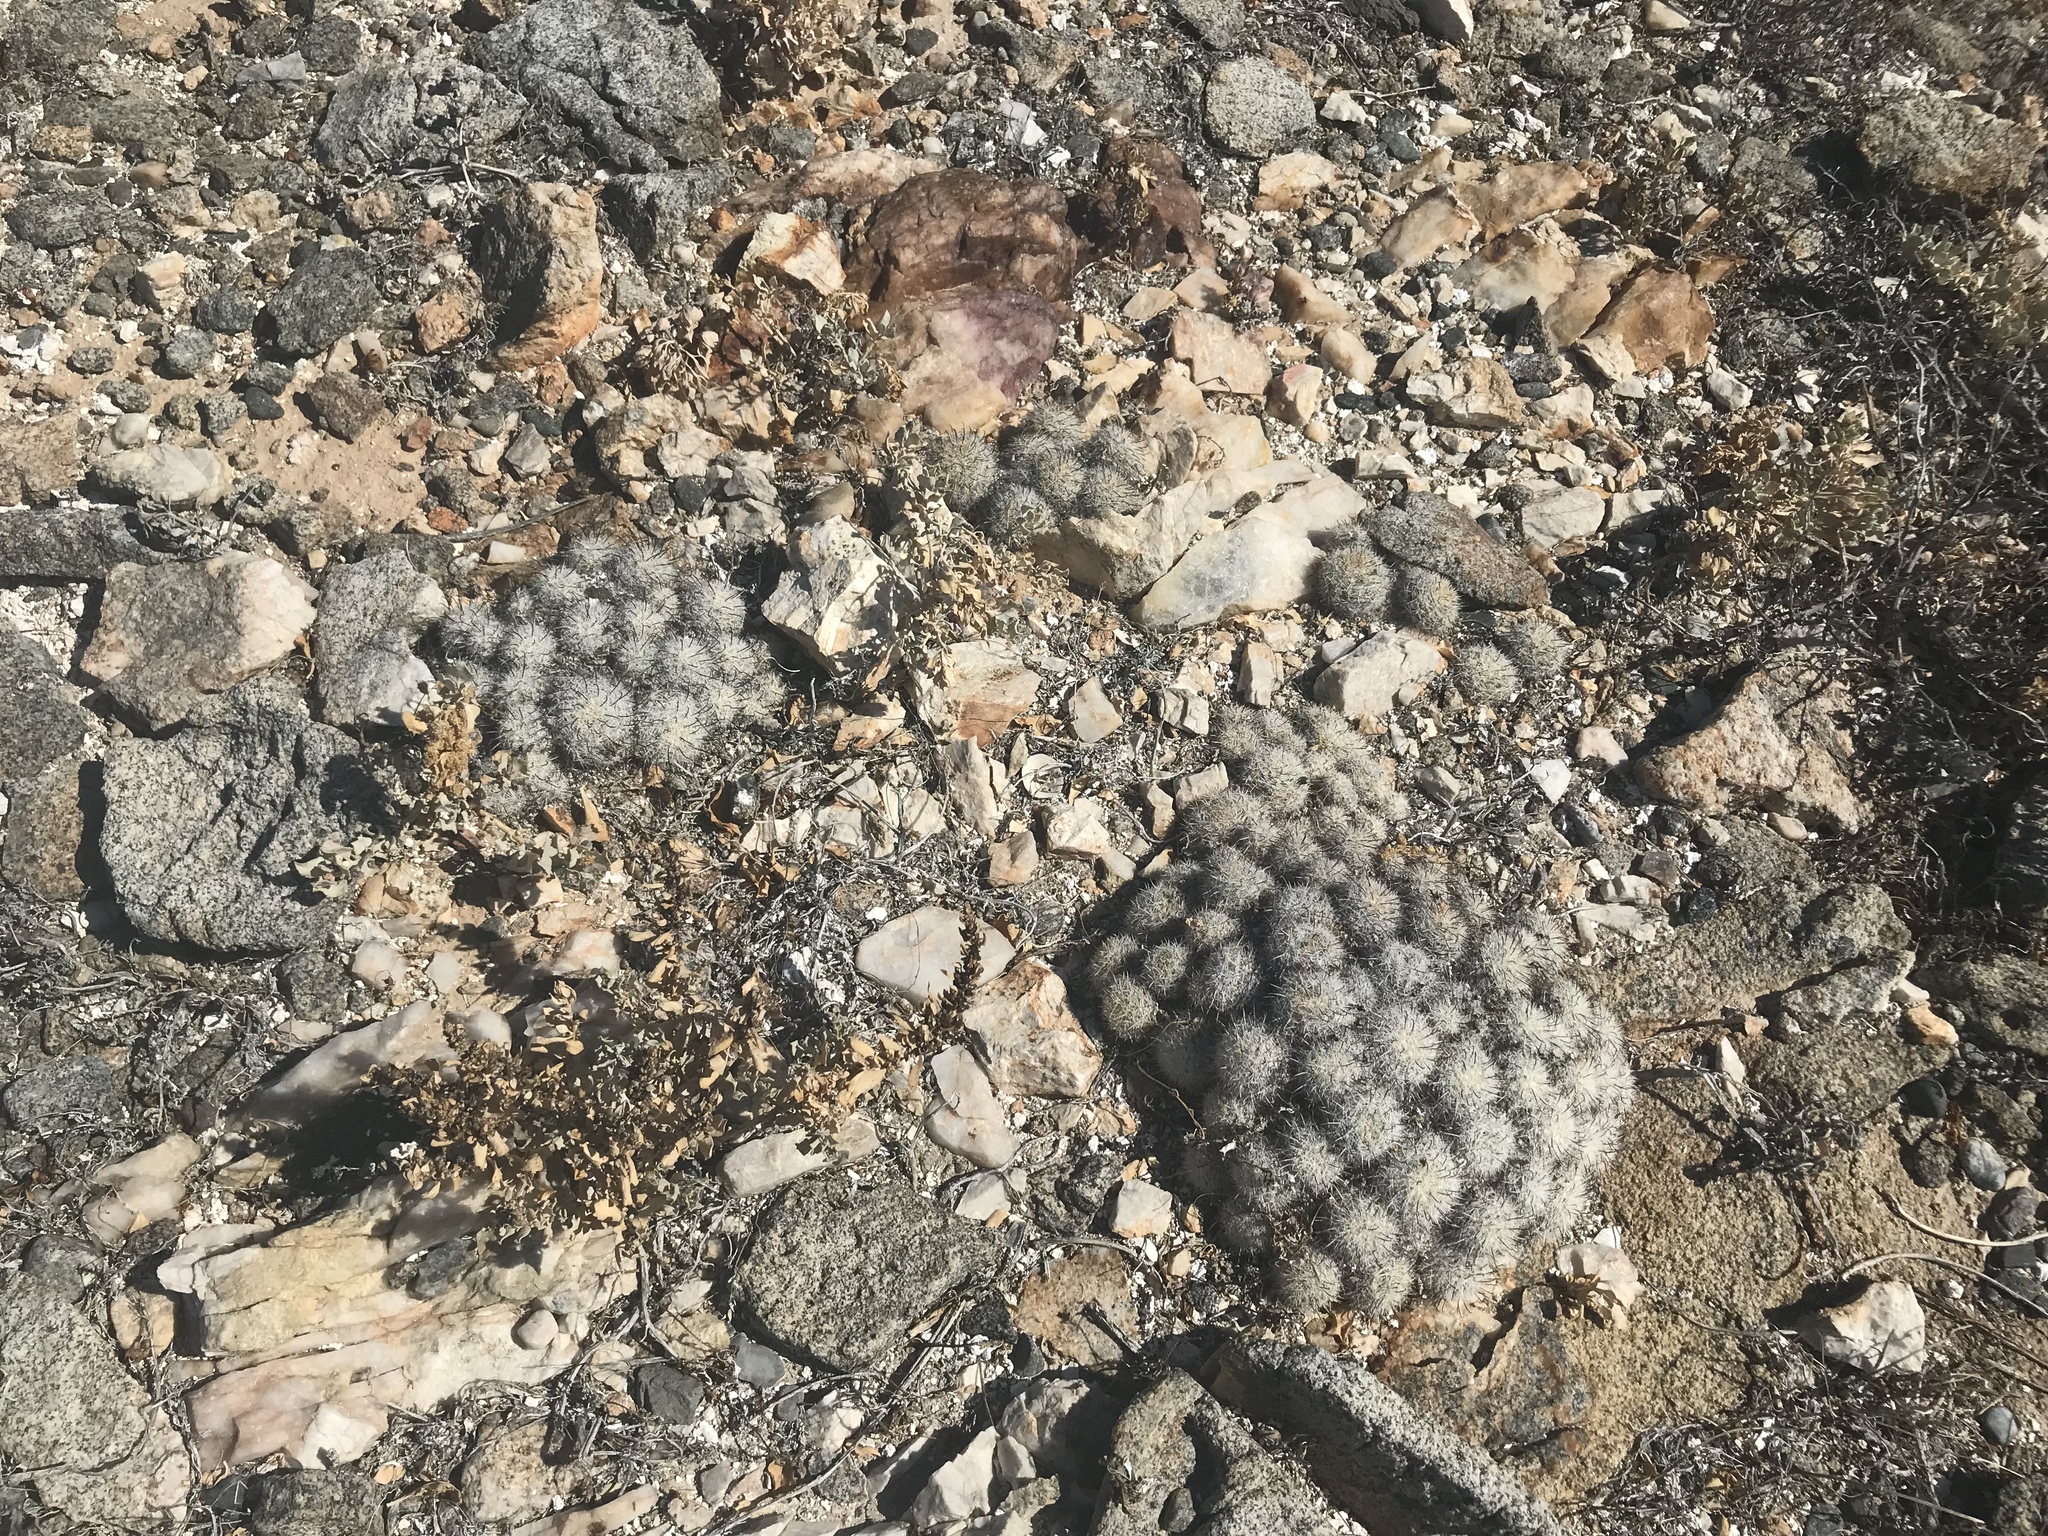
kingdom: Plantae
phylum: Tracheophyta
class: Magnoliopsida
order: Caryophyllales
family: Cactaceae
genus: Cochemiea
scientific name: Cochemiea insularis
